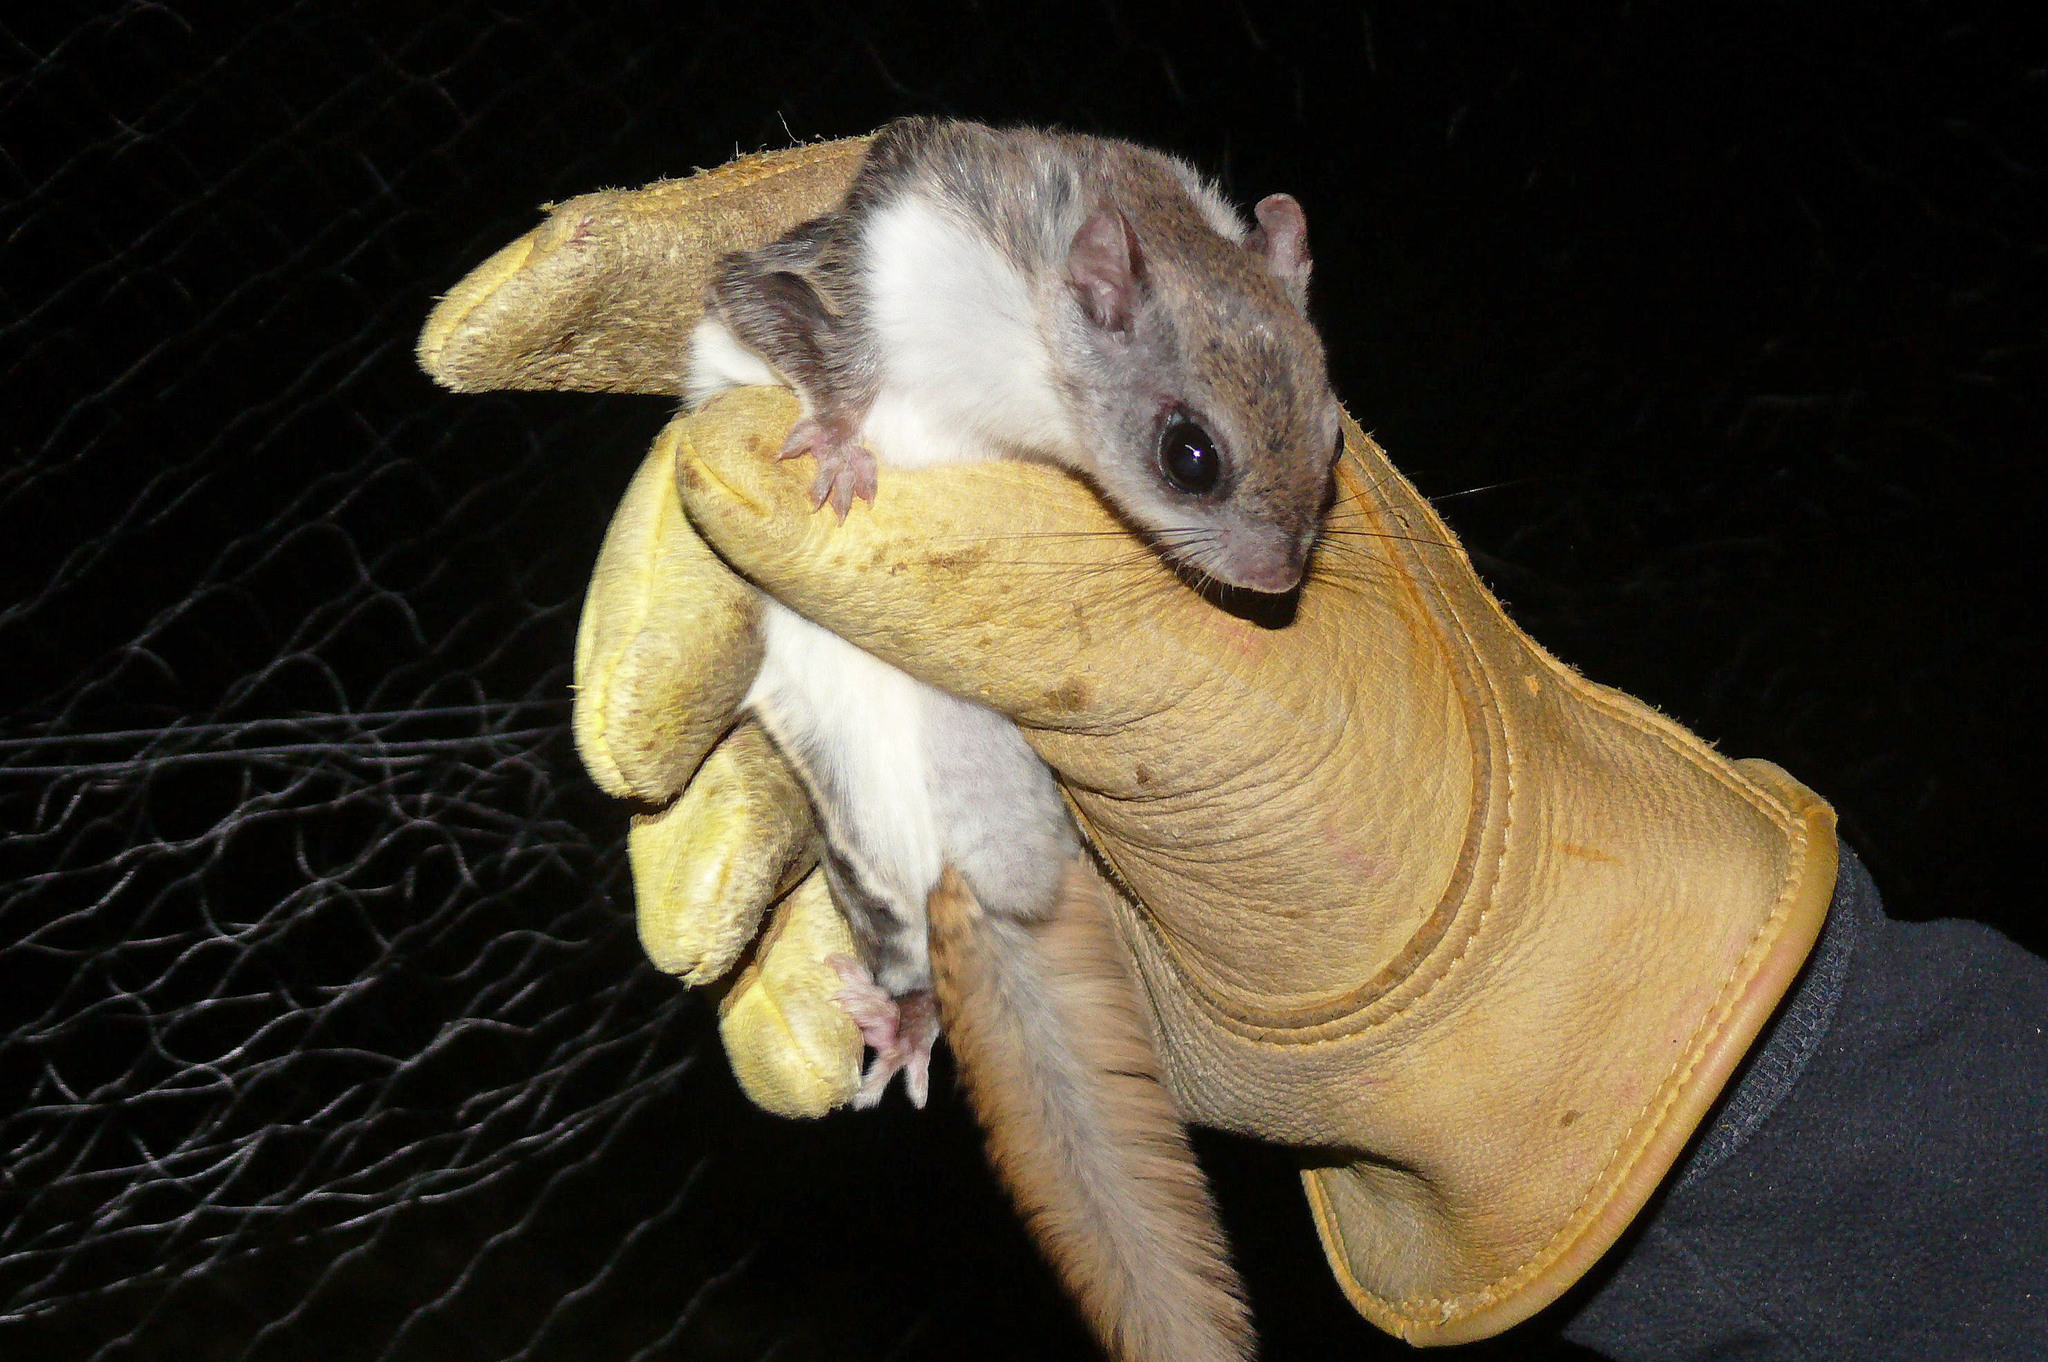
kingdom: Animalia
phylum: Chordata
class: Mammalia
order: Rodentia
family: Sciuridae
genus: Glaucomys
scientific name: Glaucomys volans
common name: Southern flying squirrel
